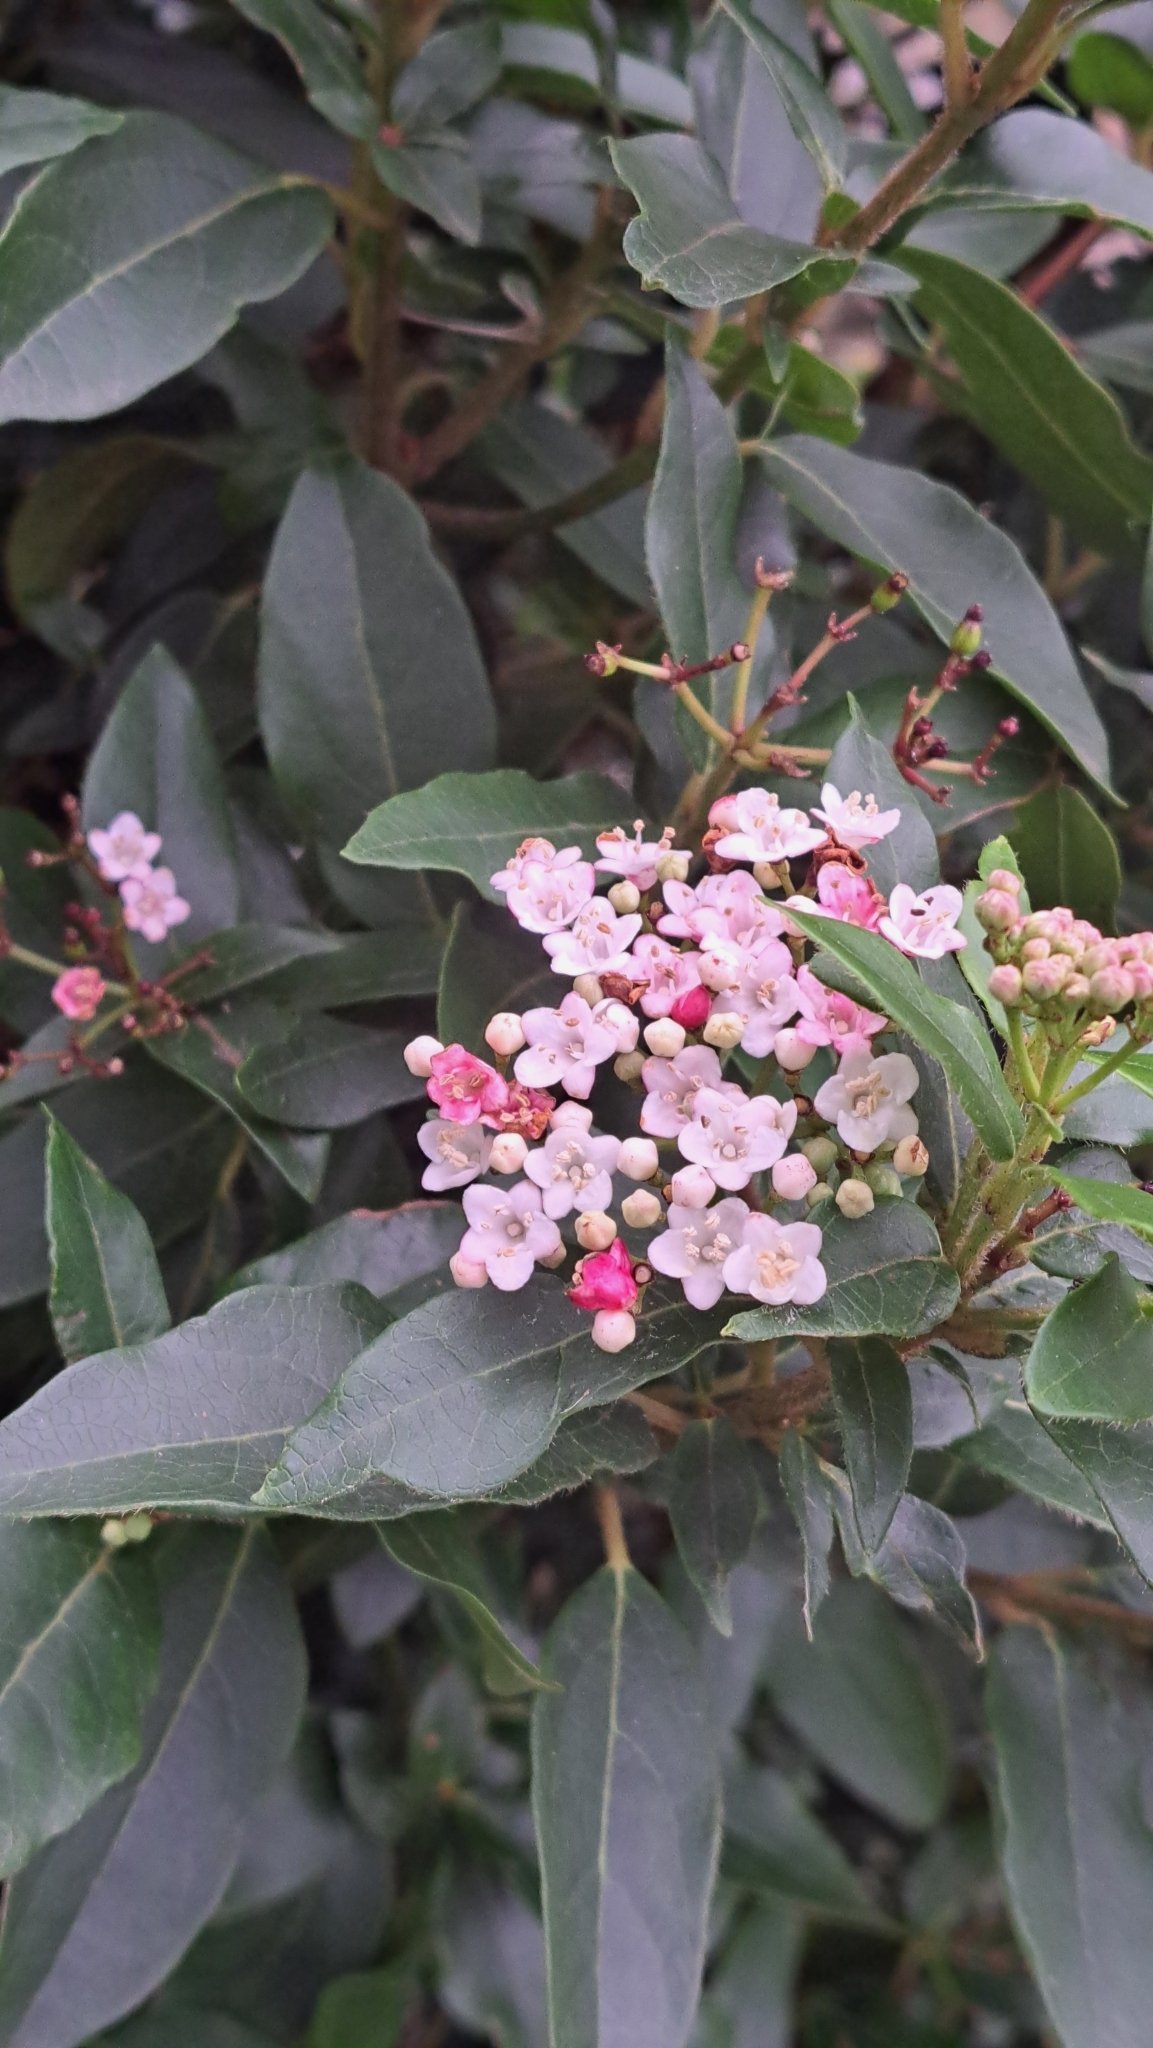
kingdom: Plantae
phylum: Tracheophyta
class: Magnoliopsida
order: Dipsacales
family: Viburnaceae
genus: Viburnum
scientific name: Viburnum tinus
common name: Laurustinus
